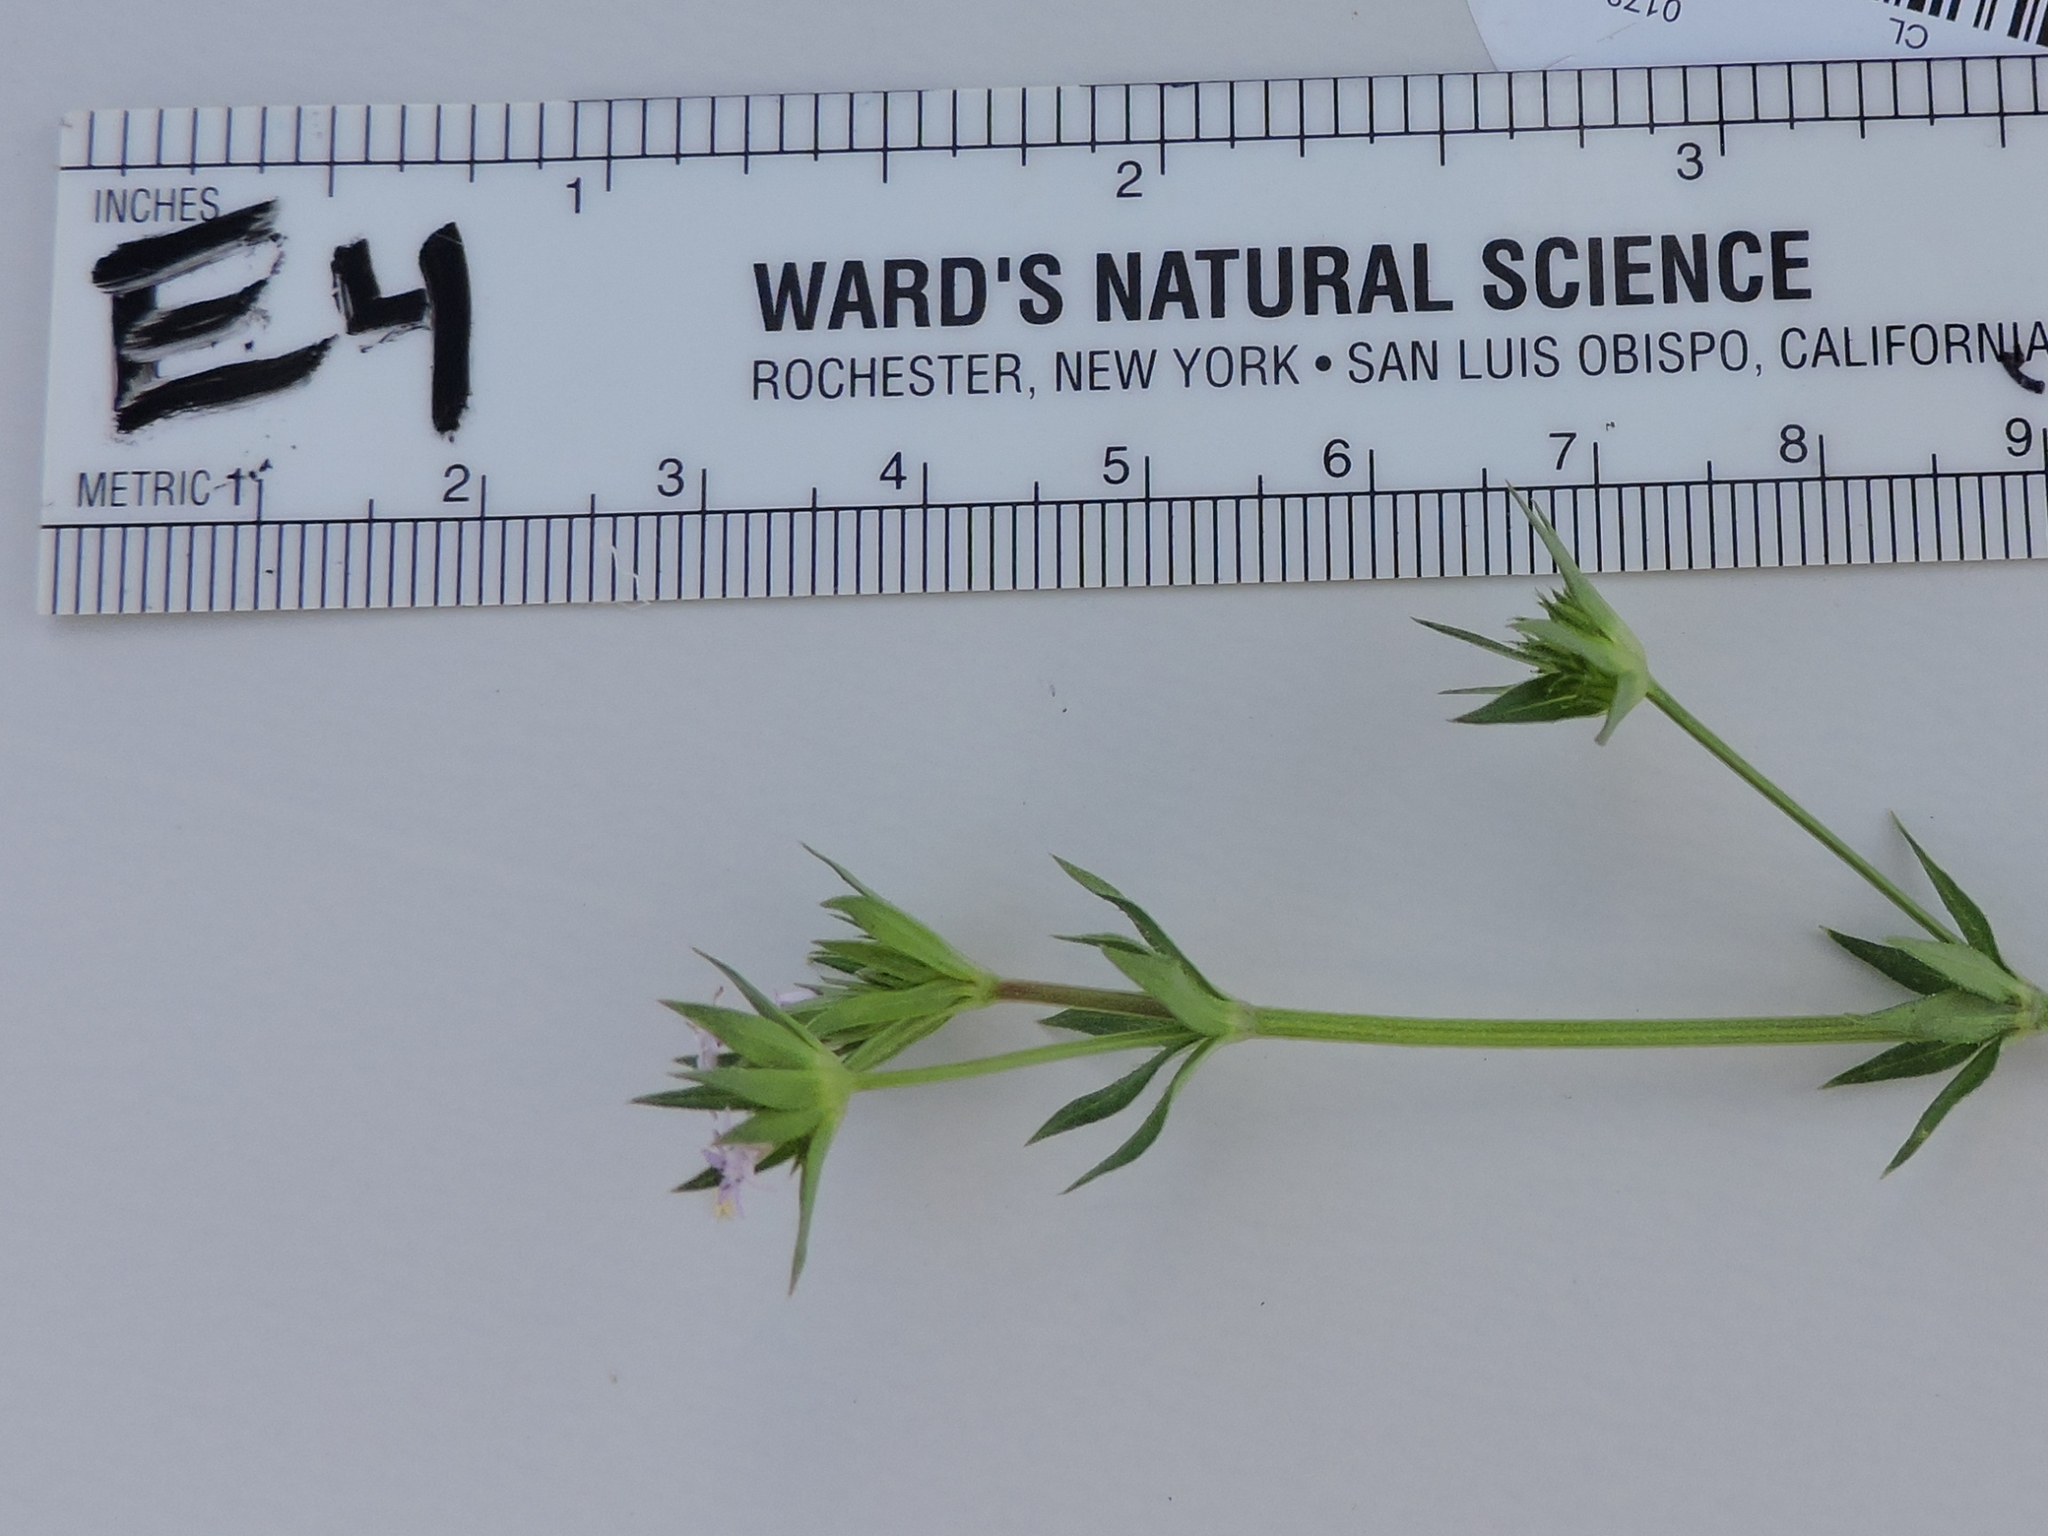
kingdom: Plantae
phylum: Tracheophyta
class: Magnoliopsida
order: Gentianales
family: Rubiaceae
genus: Sherardia
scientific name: Sherardia arvensis
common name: Field madder
